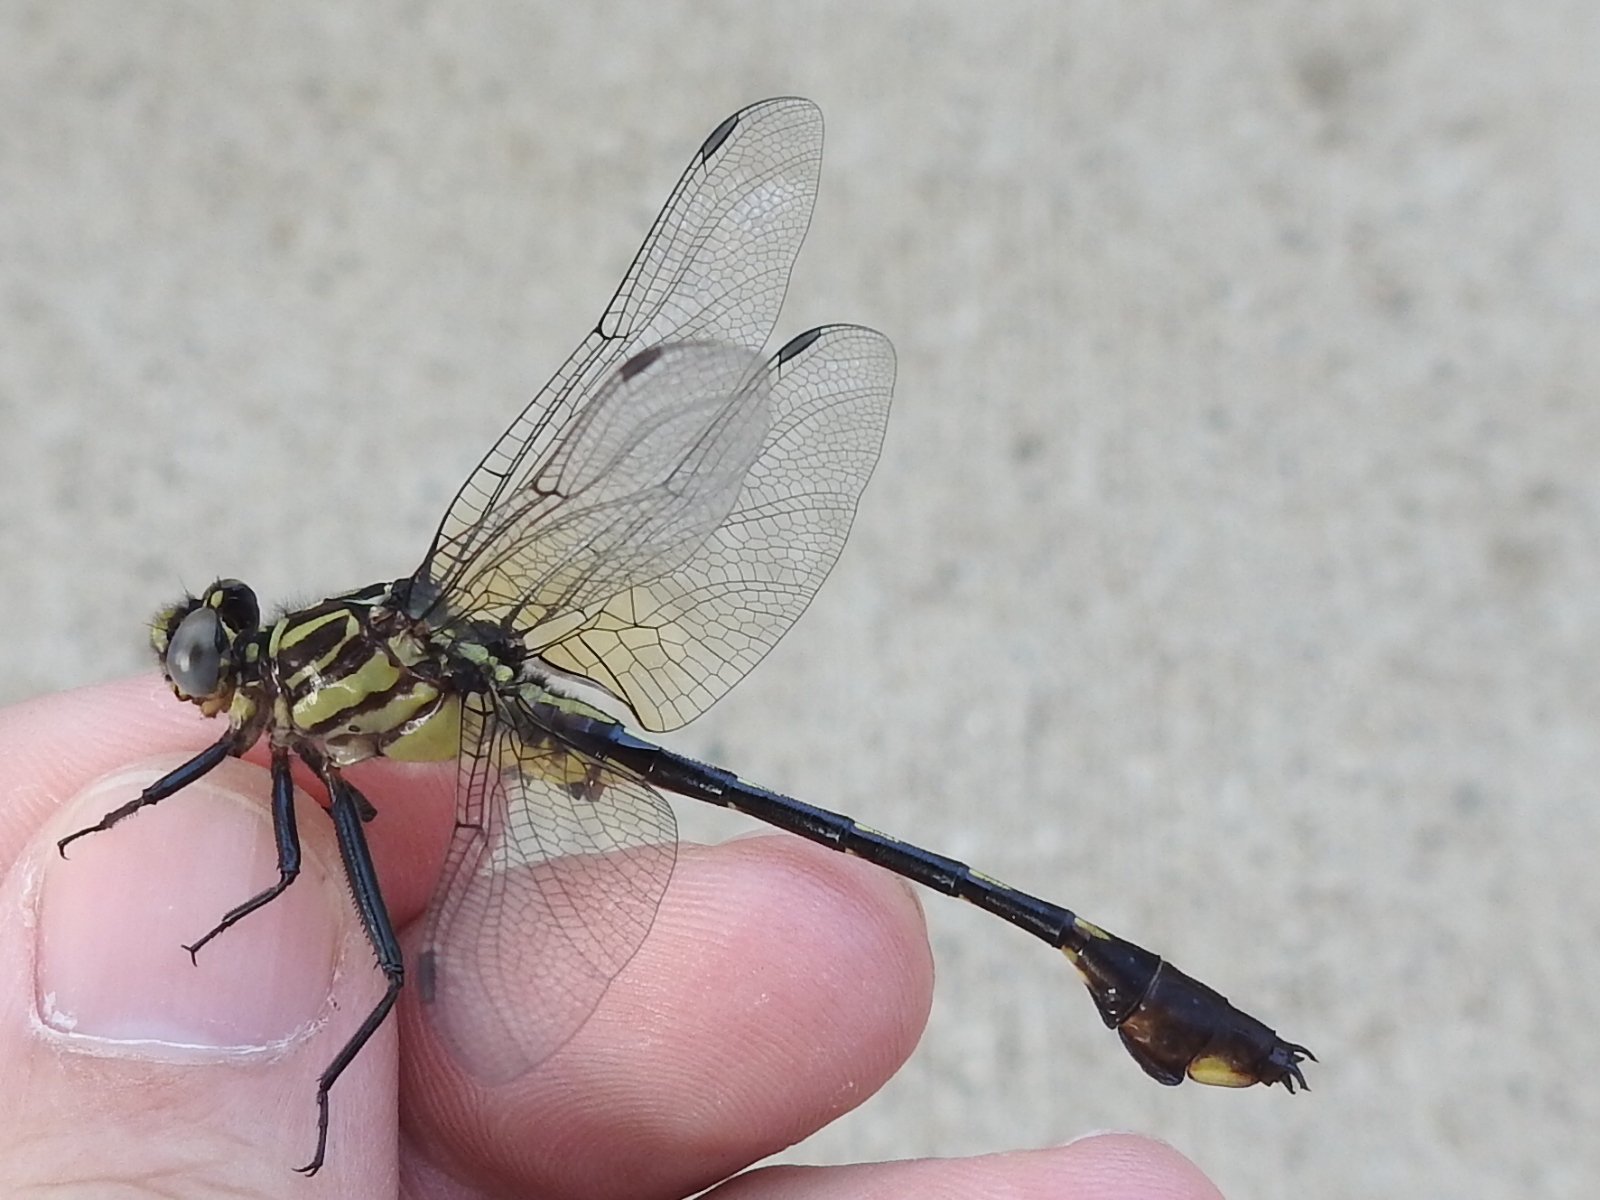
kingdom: Animalia
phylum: Arthropoda
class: Insecta
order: Odonata
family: Gomphidae
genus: Gomphurus
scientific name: Gomphurus vastus
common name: Cobra clubtail
